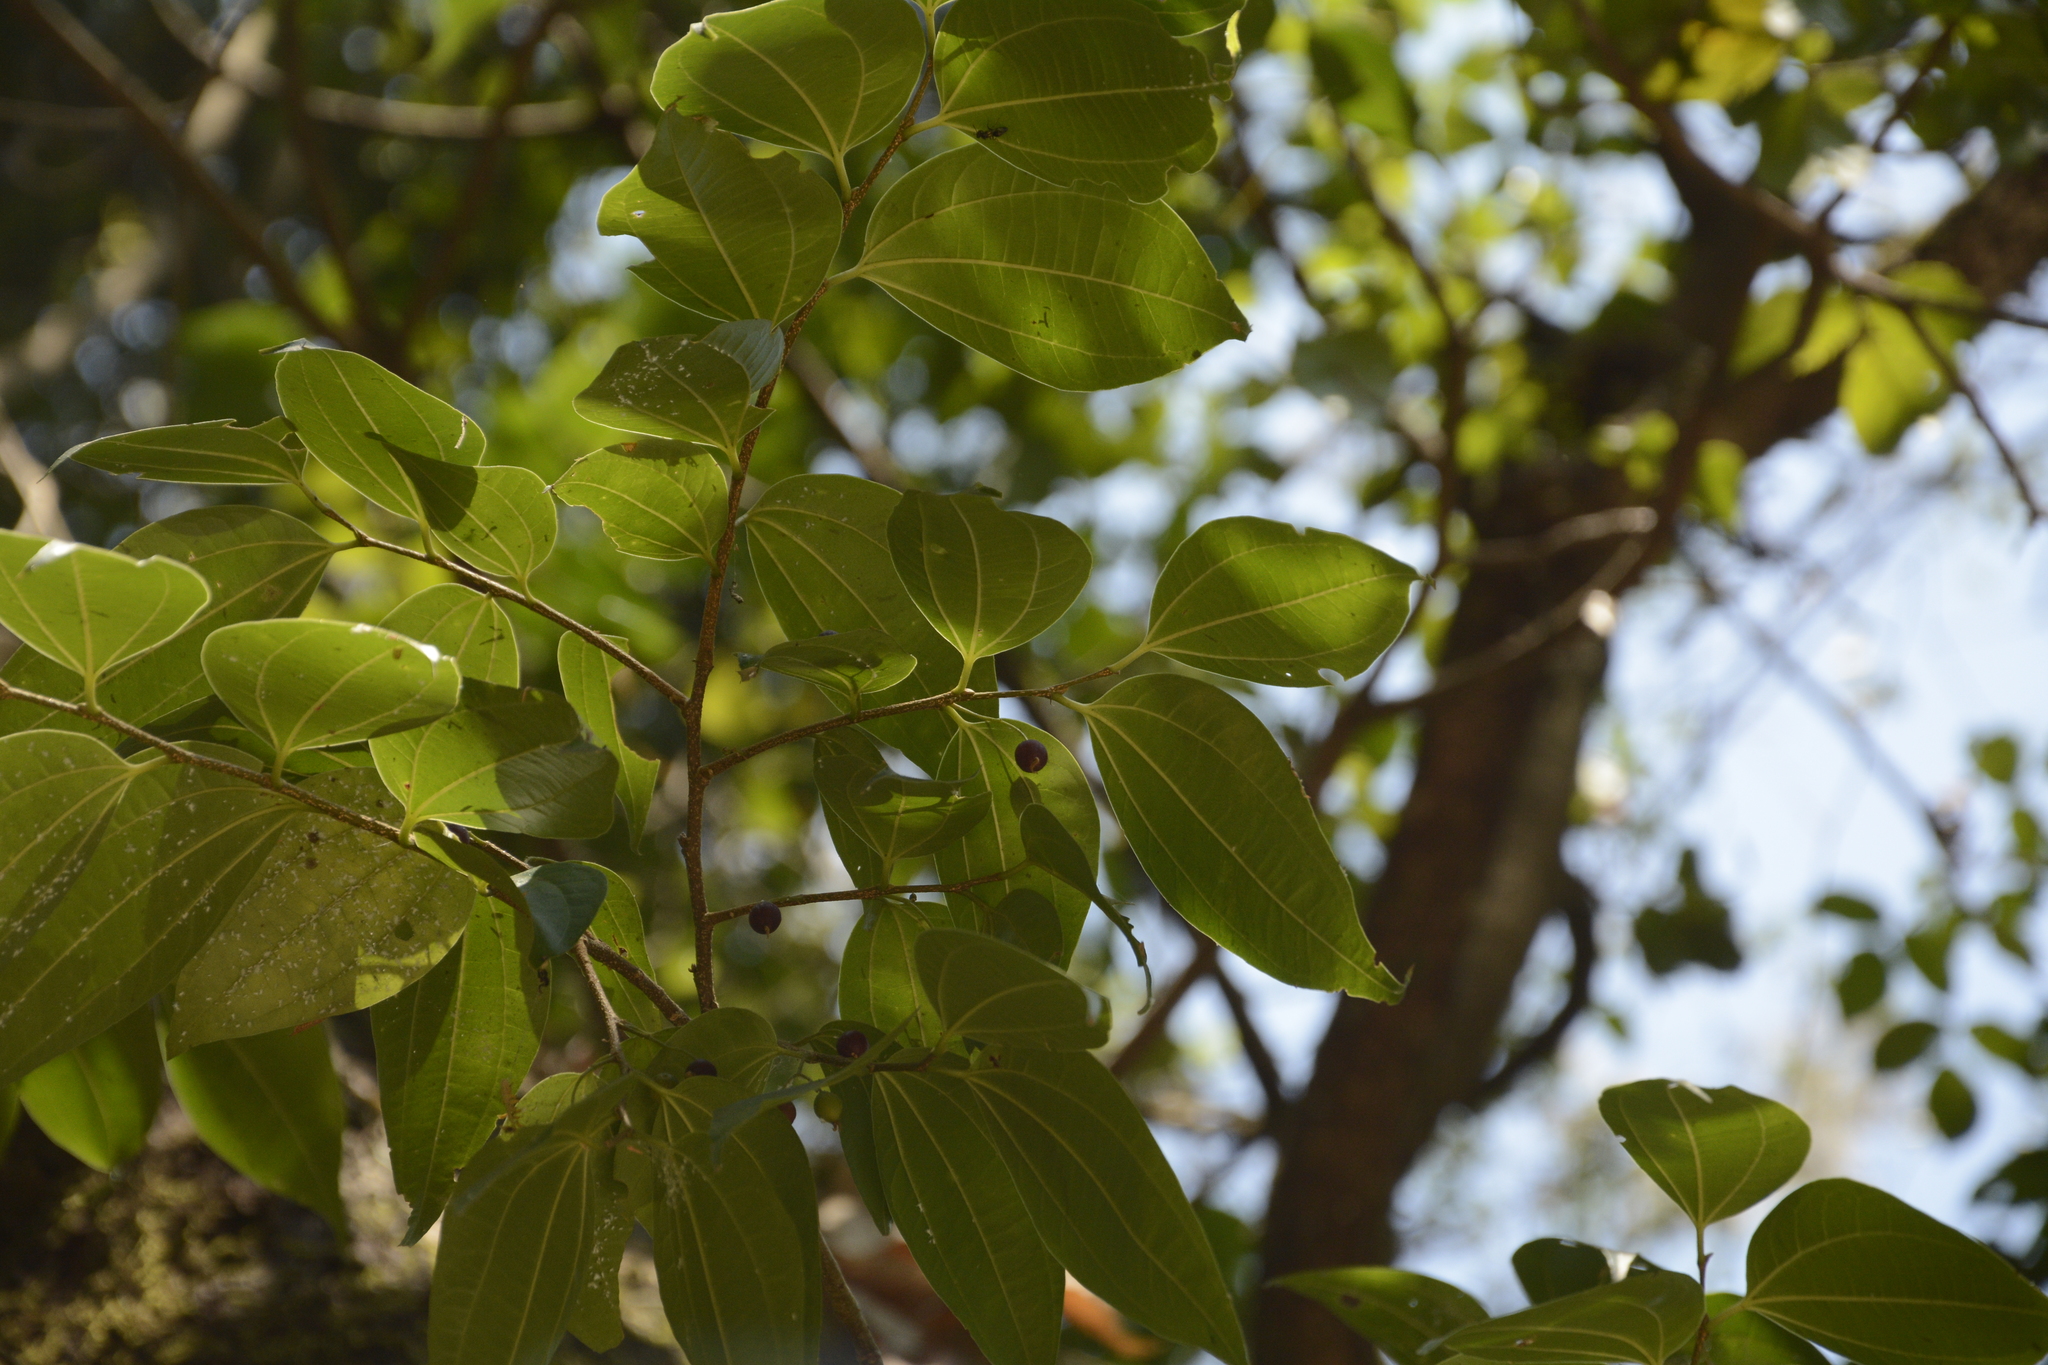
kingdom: Plantae
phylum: Tracheophyta
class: Magnoliopsida
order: Rosales
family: Cannabaceae
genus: Celtis
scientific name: Celtis timorensis
